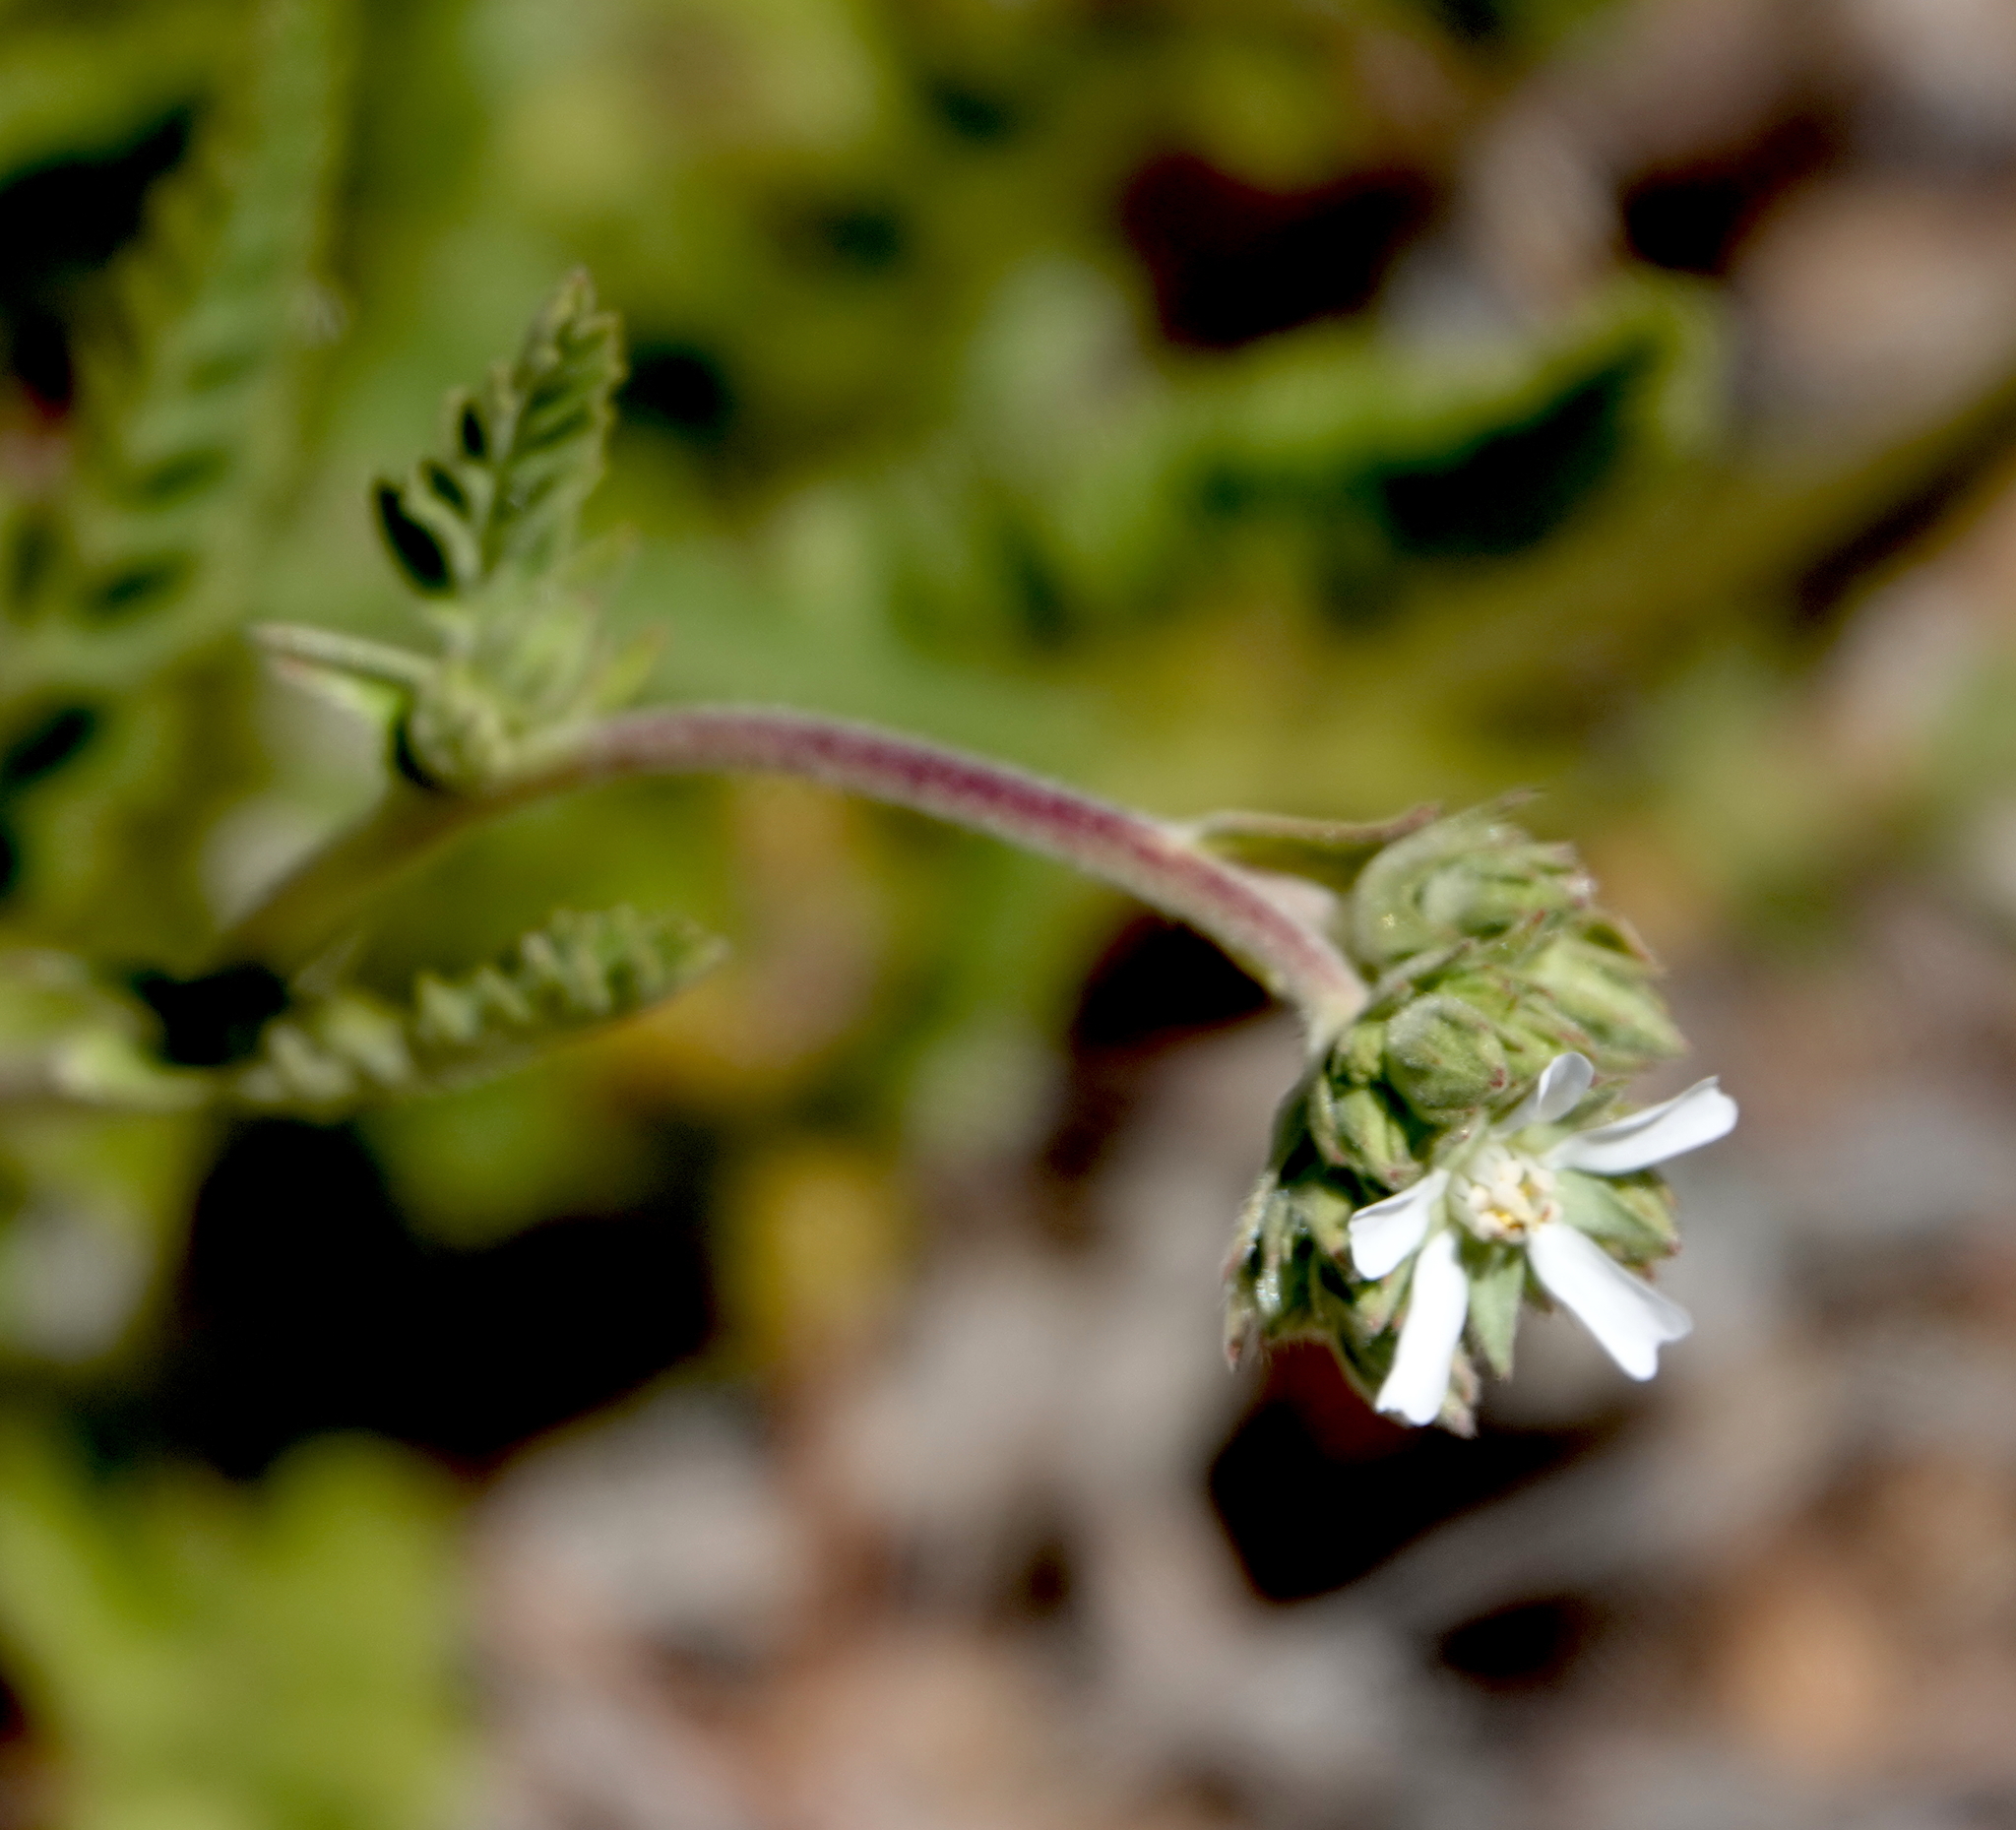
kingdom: Plantae
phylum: Tracheophyta
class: Magnoliopsida
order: Rosales
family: Rosaceae
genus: Potentilla
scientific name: Potentilla rydbergii
